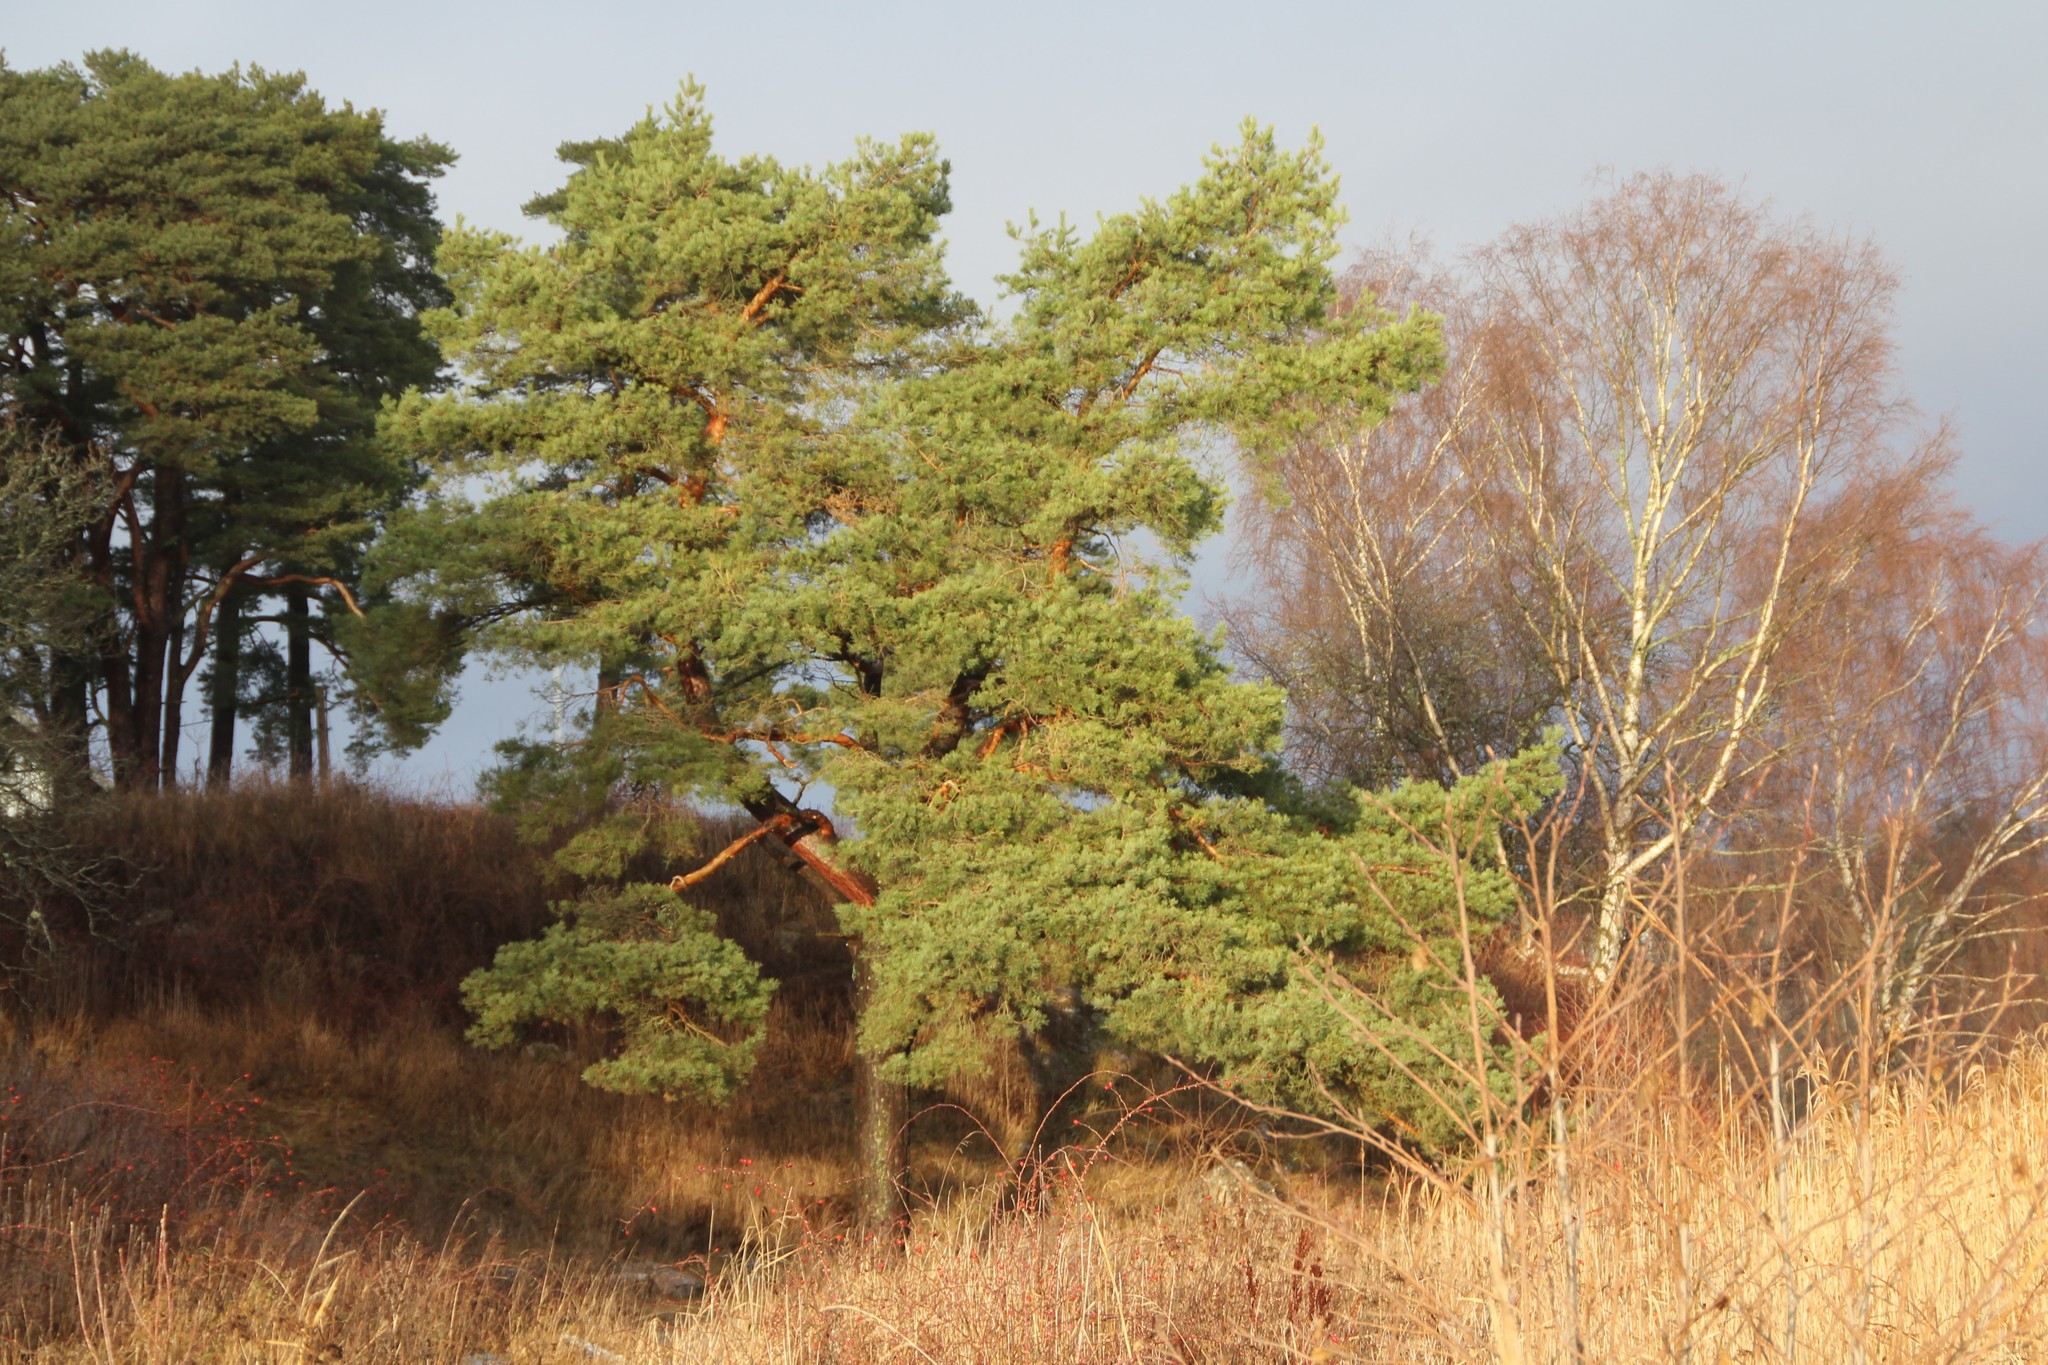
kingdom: Plantae
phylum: Tracheophyta
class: Pinopsida
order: Pinales
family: Pinaceae
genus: Pinus
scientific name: Pinus sylvestris
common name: Scots pine
